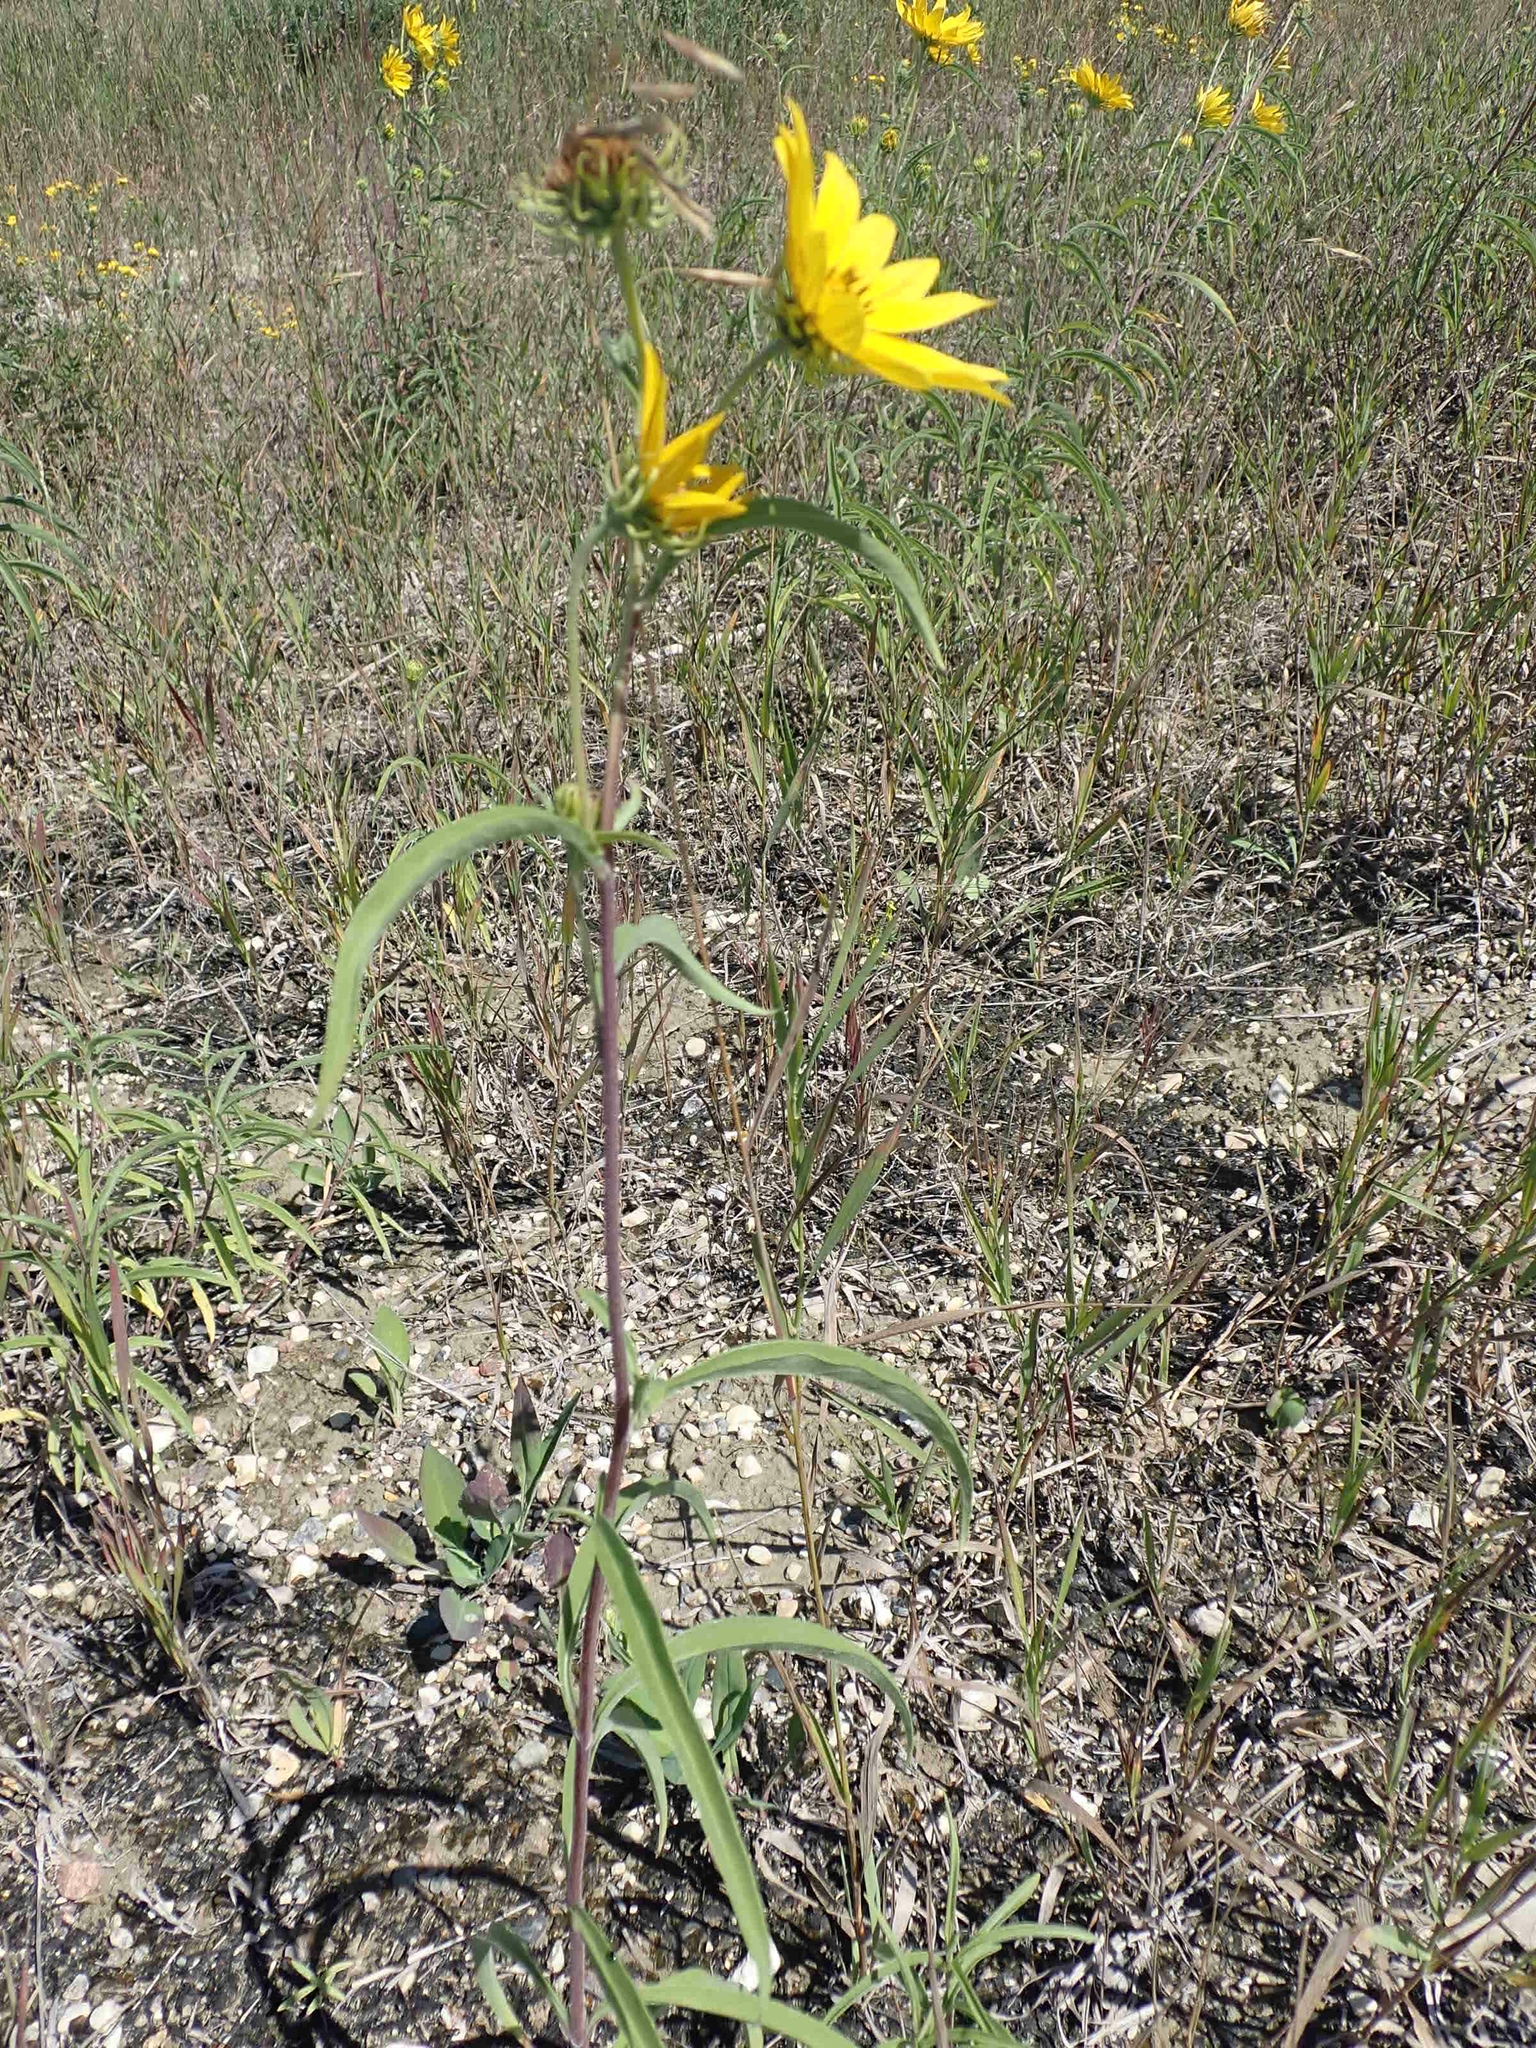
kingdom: Plantae
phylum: Tracheophyta
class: Magnoliopsida
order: Asterales
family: Asteraceae
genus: Helianthus
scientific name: Helianthus maximiliani
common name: Maximilian's sunflower
